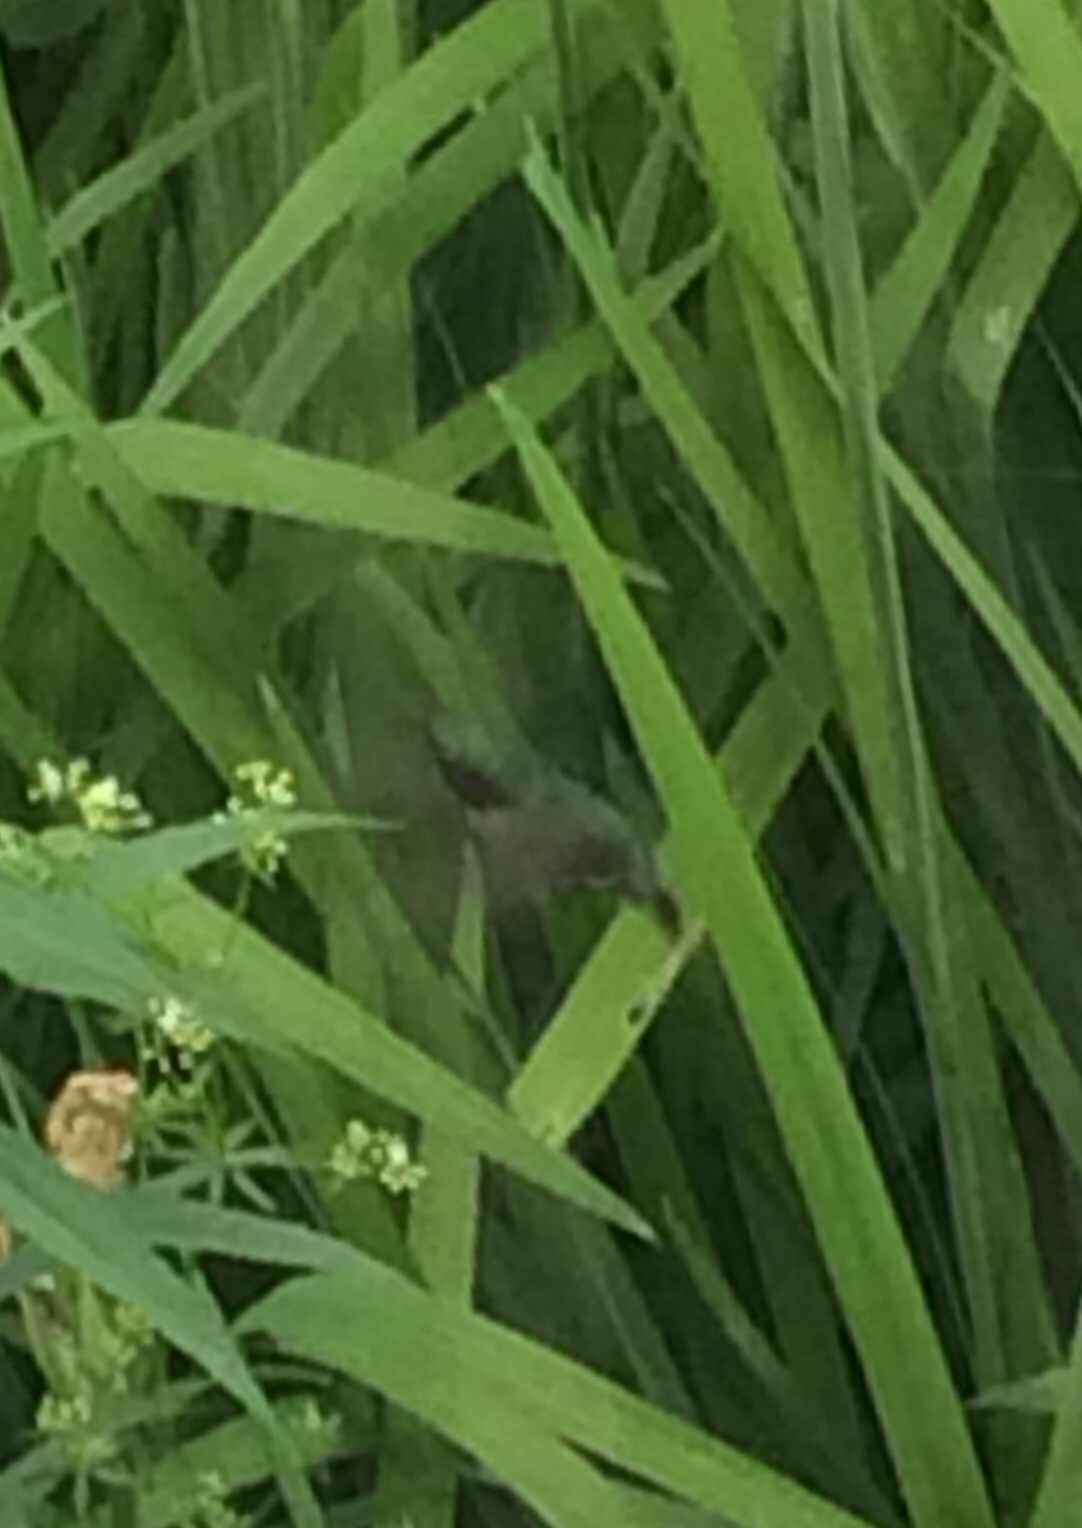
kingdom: Animalia
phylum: Chordata
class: Aves
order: Apodiformes
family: Trochilidae
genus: Archilochus
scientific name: Archilochus colubris
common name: Ruby-throated hummingbird
